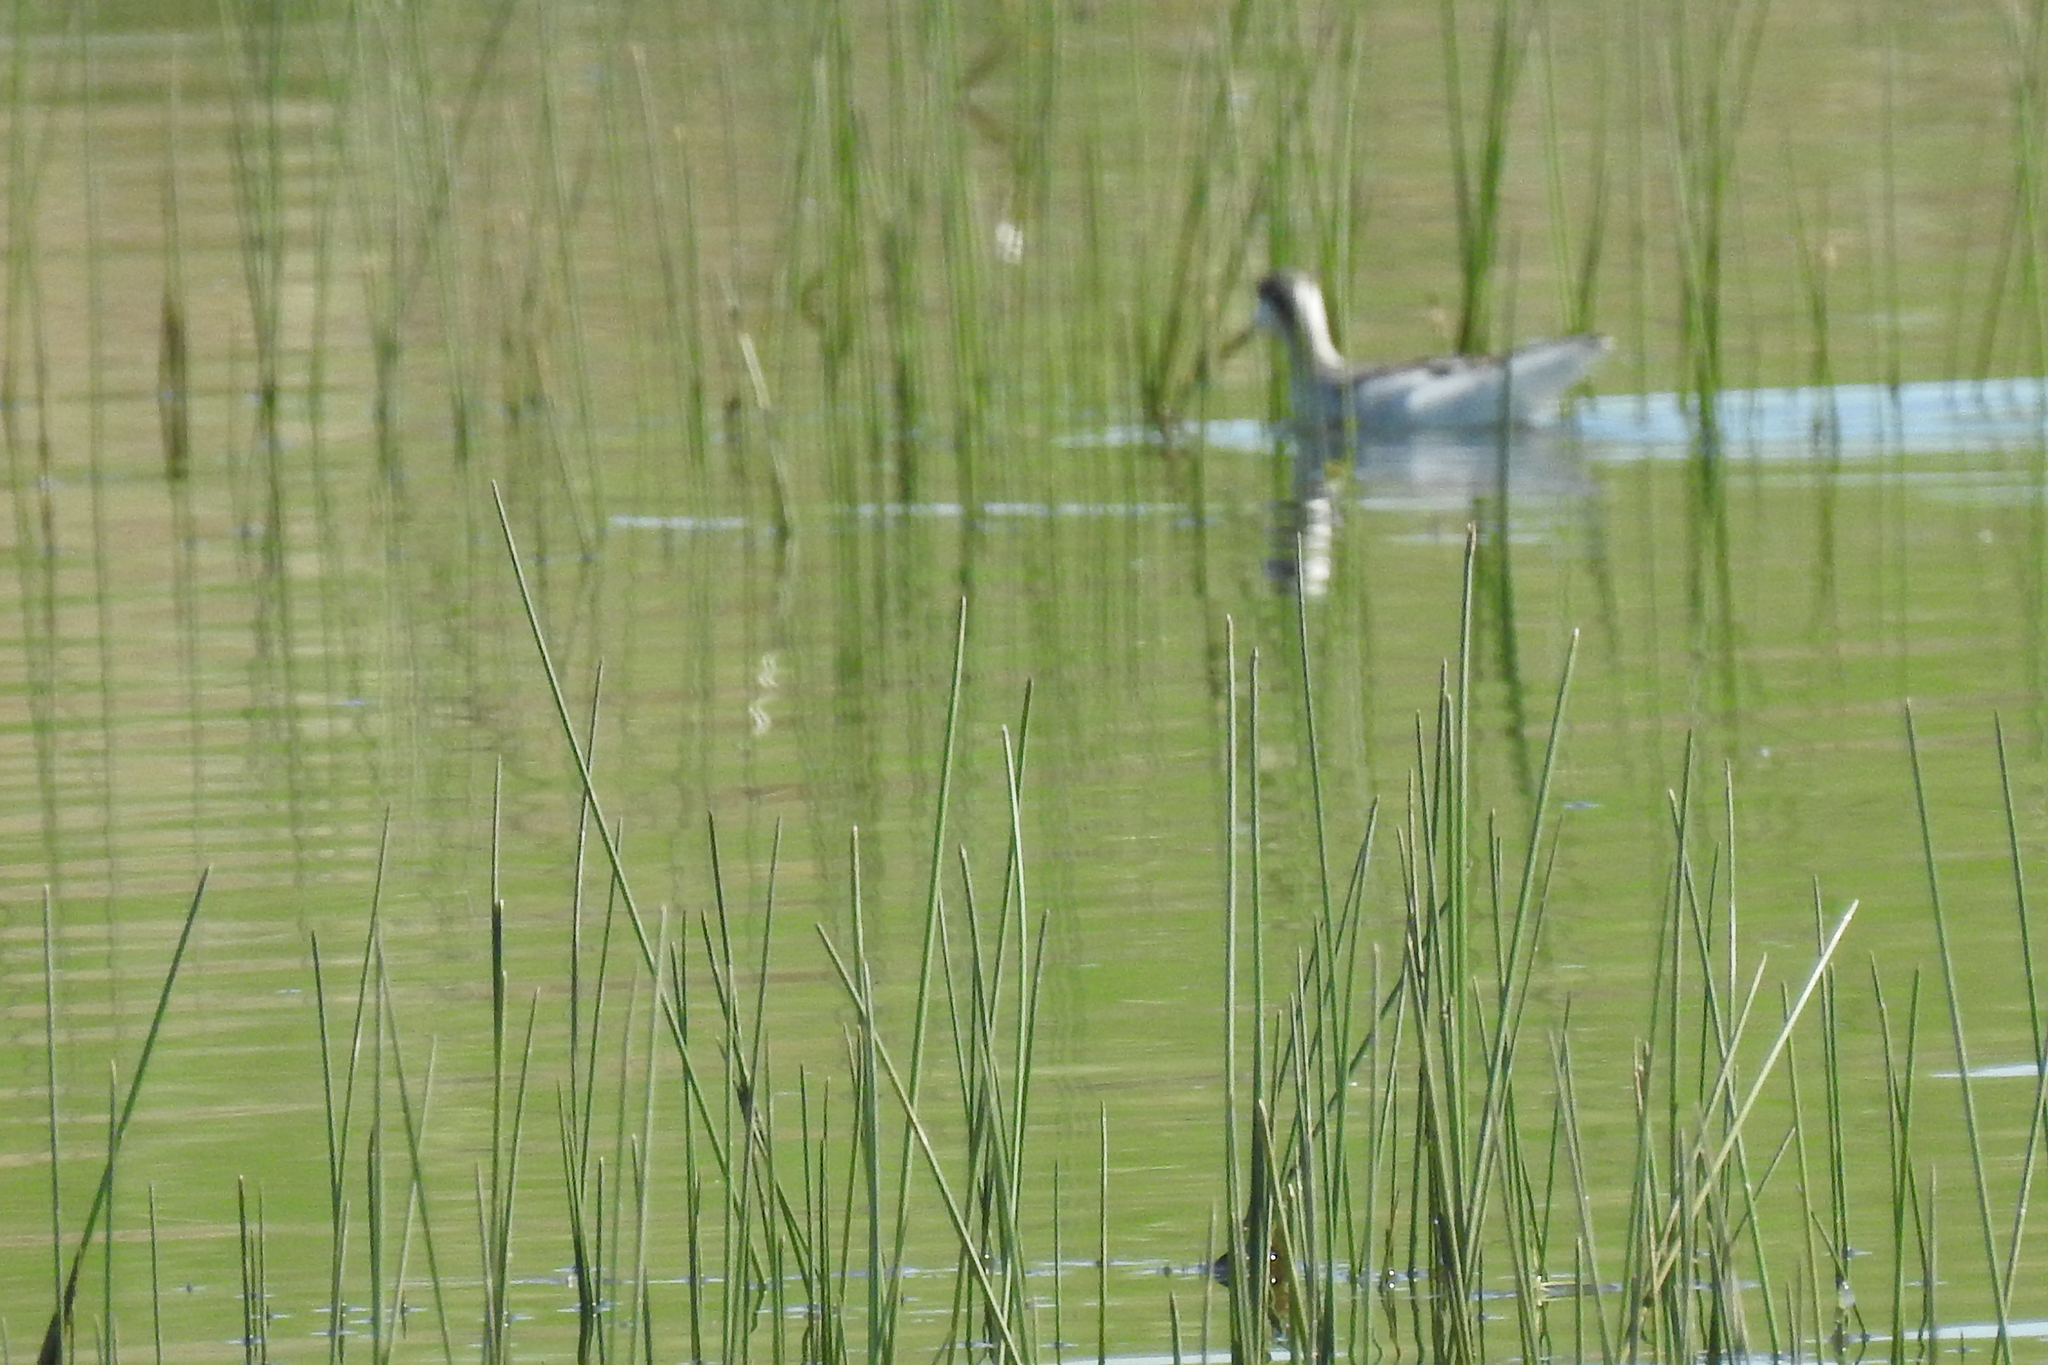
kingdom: Animalia
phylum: Chordata
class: Aves
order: Charadriiformes
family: Scolopacidae
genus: Phalaropus
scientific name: Phalaropus tricolor
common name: Wilson's phalarope
